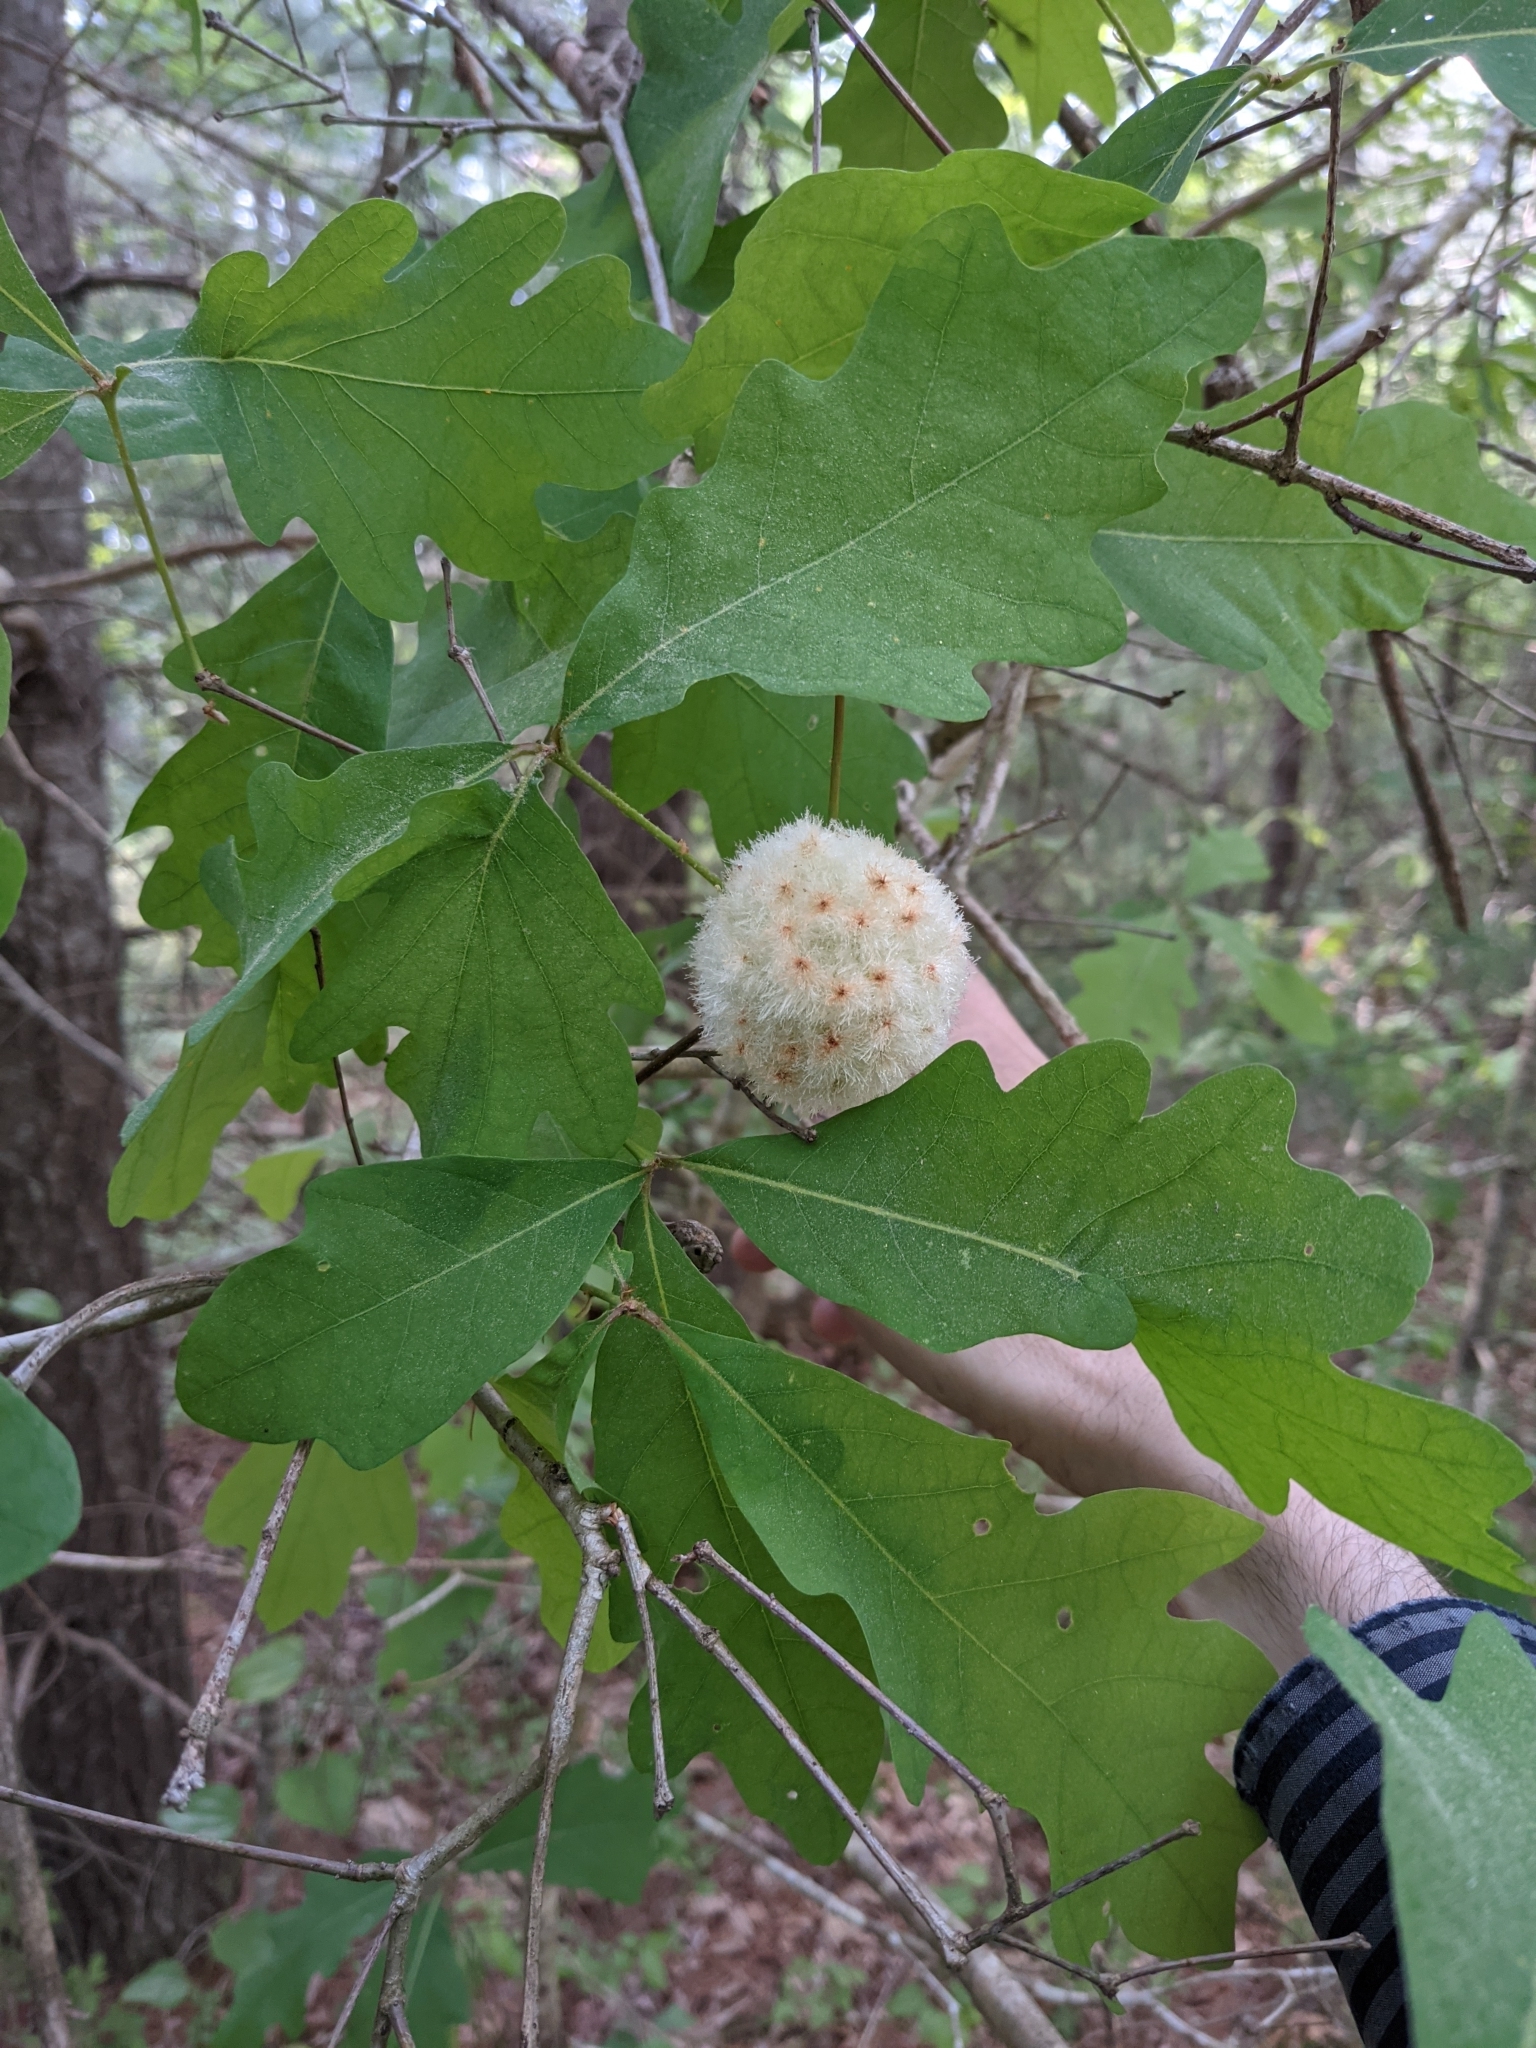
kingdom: Animalia
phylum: Arthropoda
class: Insecta
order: Hymenoptera
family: Cynipidae
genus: Callirhytis
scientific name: Callirhytis
